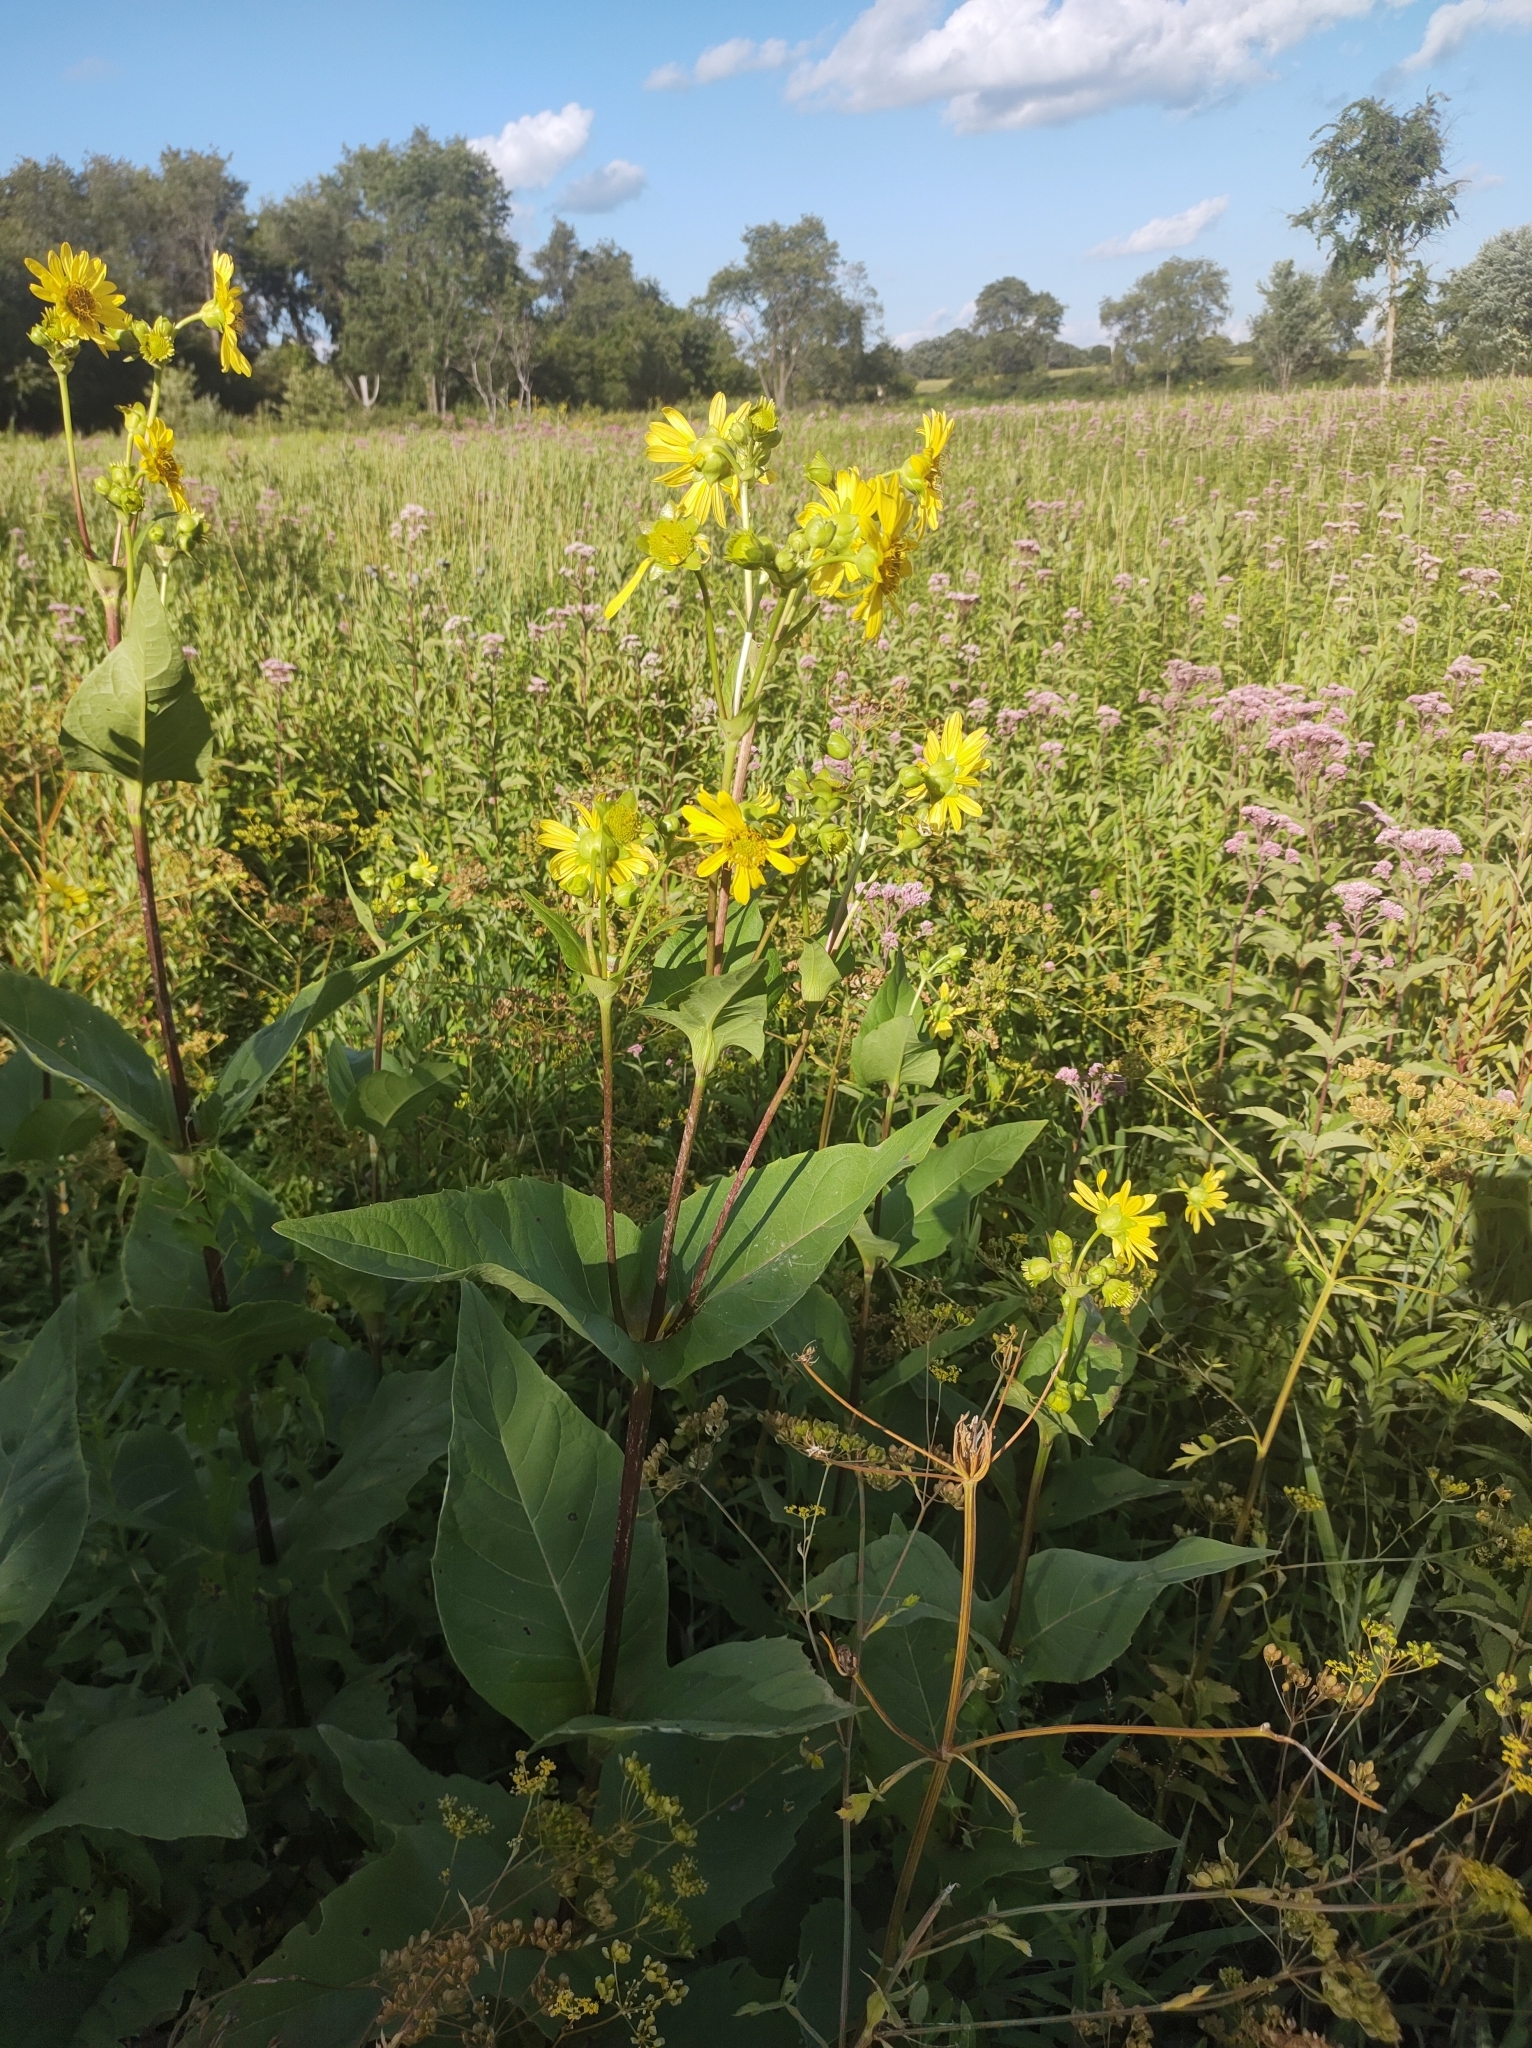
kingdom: Plantae
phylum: Tracheophyta
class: Magnoliopsida
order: Asterales
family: Asteraceae
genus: Silphium
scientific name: Silphium perfoliatum
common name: Cup-plant
